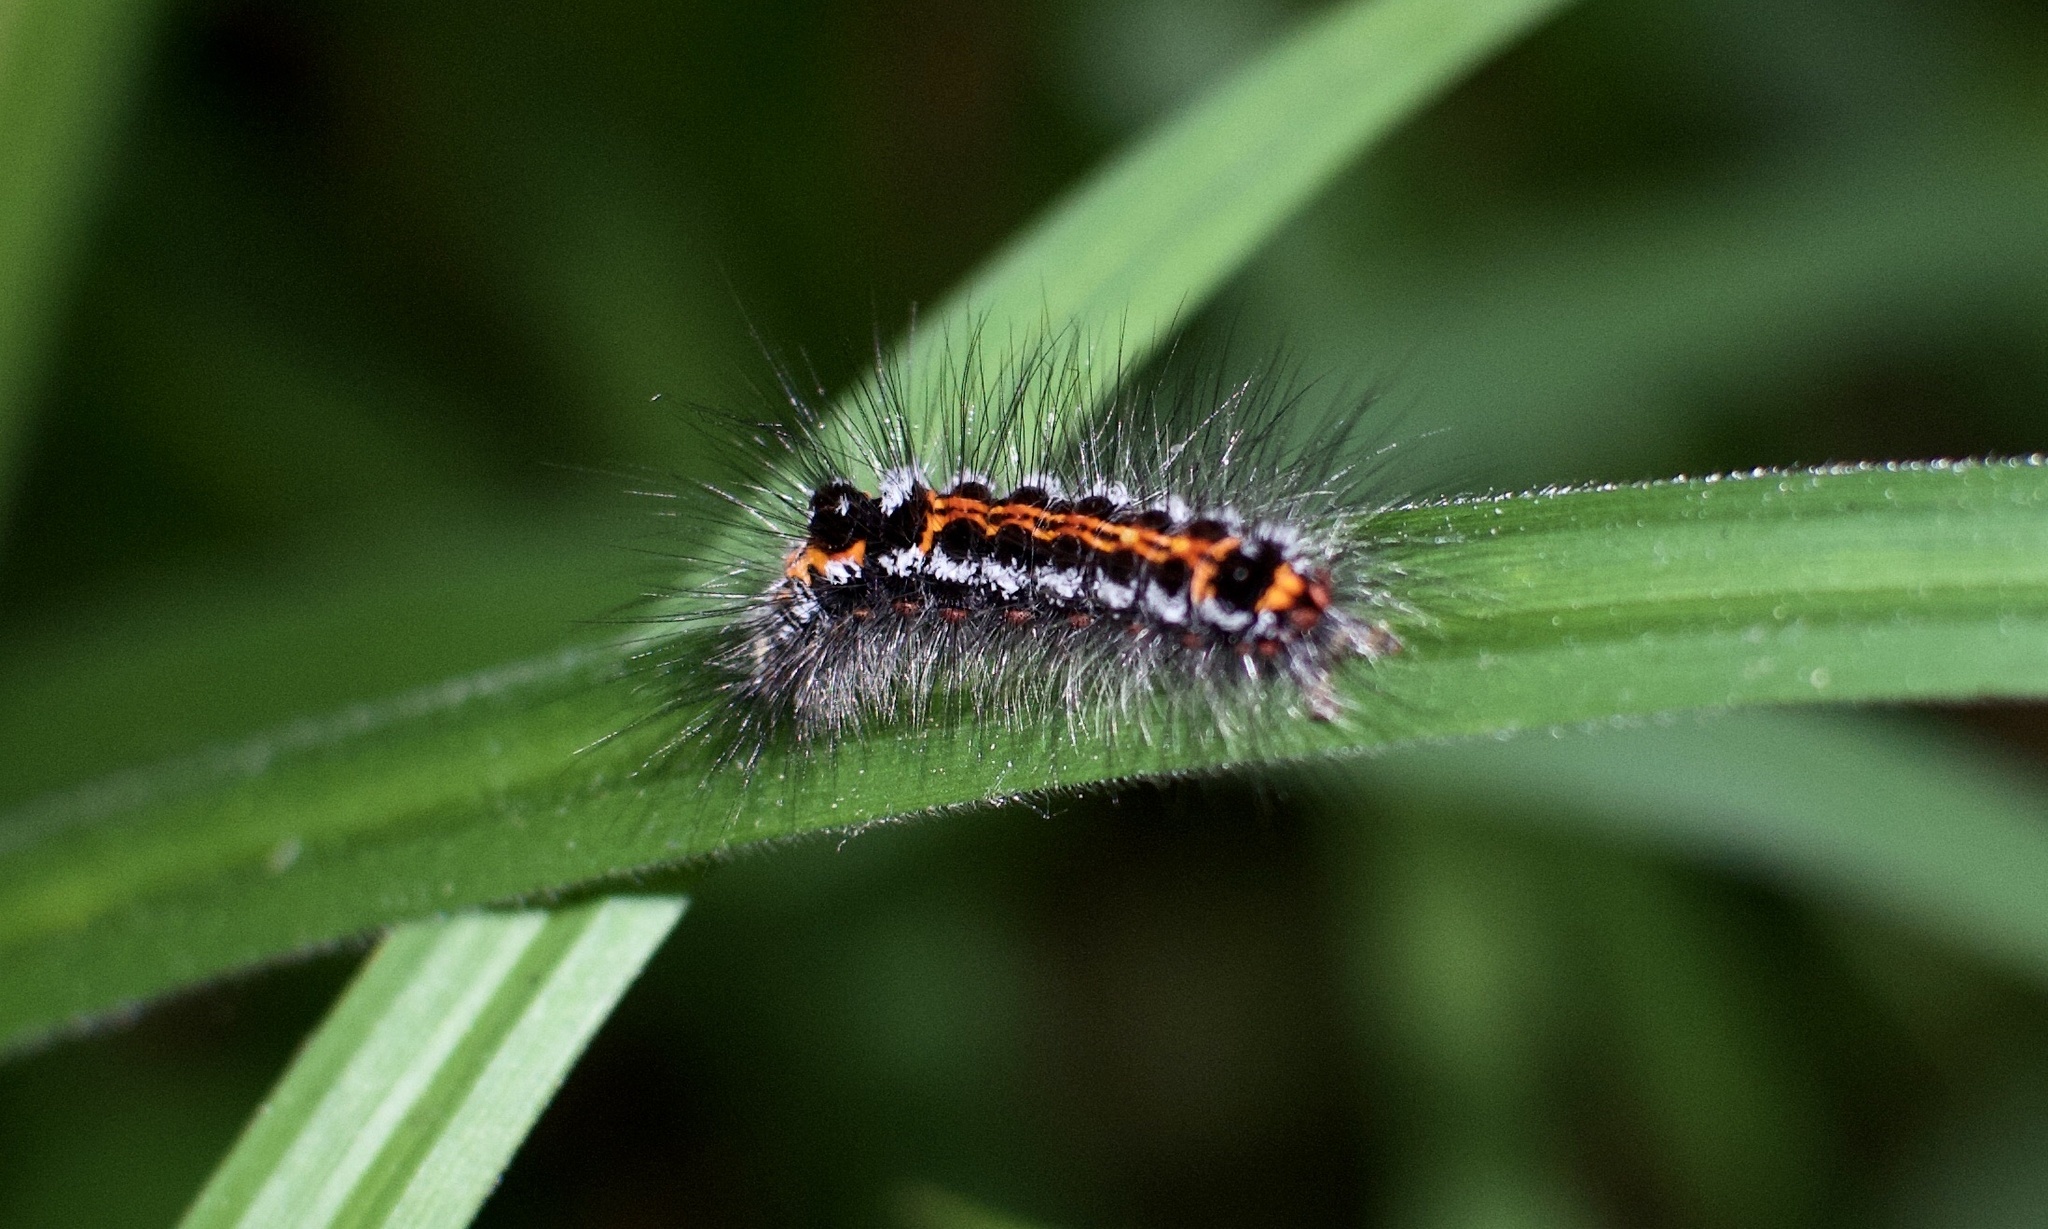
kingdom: Animalia
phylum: Arthropoda
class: Insecta
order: Lepidoptera
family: Erebidae
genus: Sphrageidus
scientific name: Sphrageidus similis
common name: Yellow-tail
